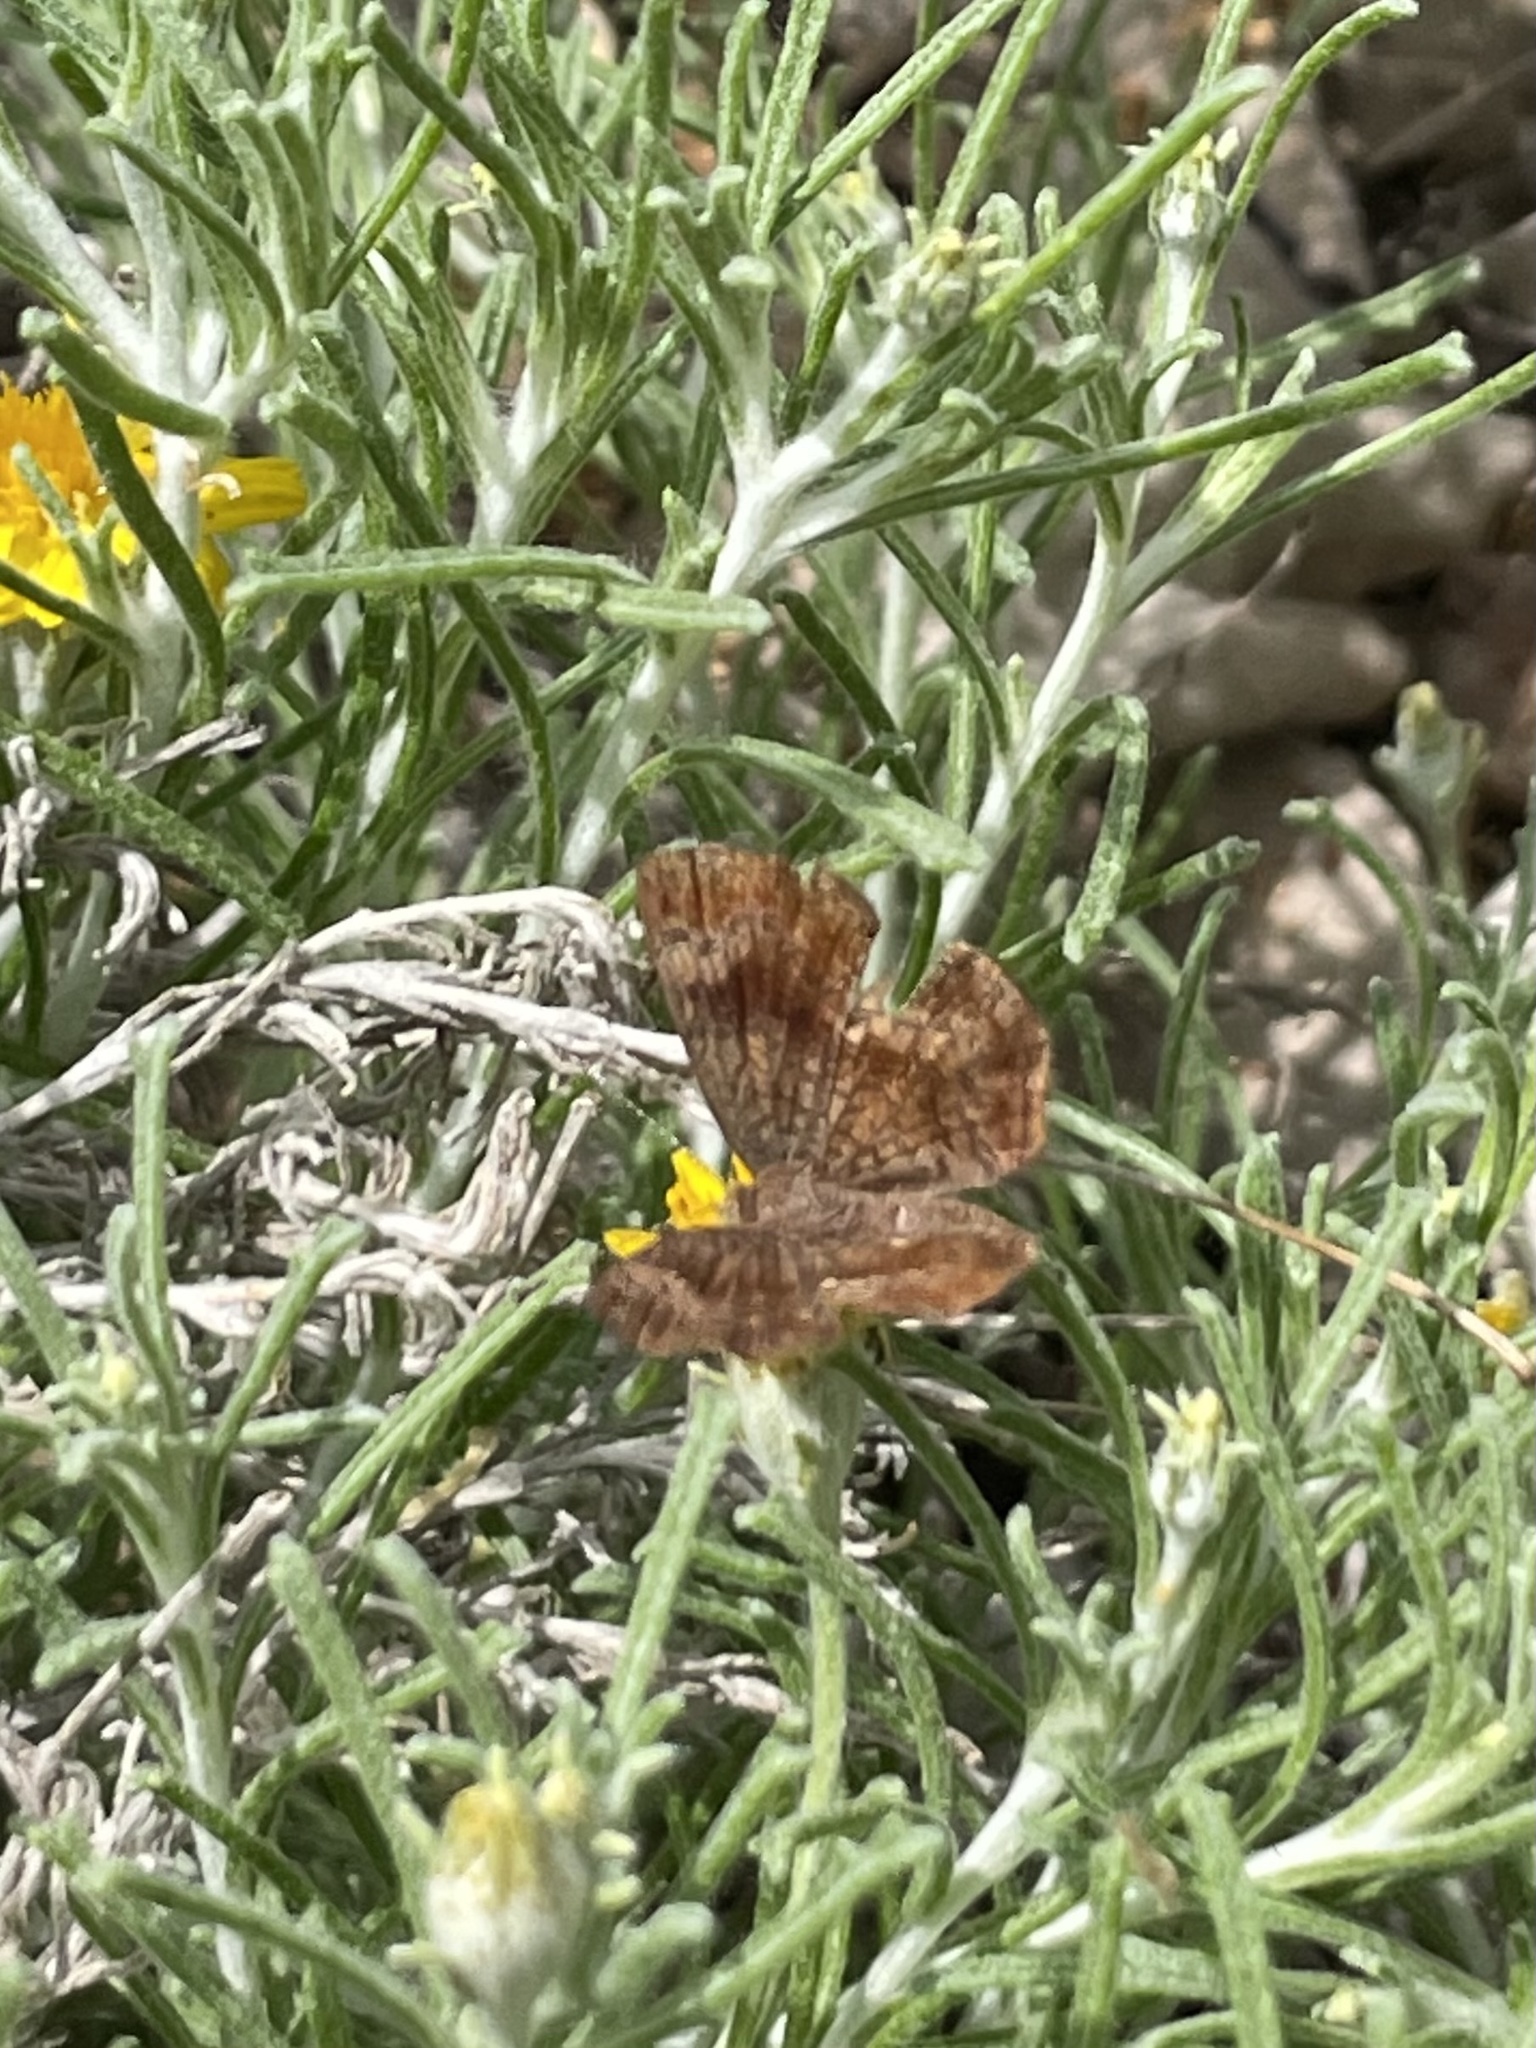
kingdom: Animalia
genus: Calephelis
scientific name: Calephelis perditalis
